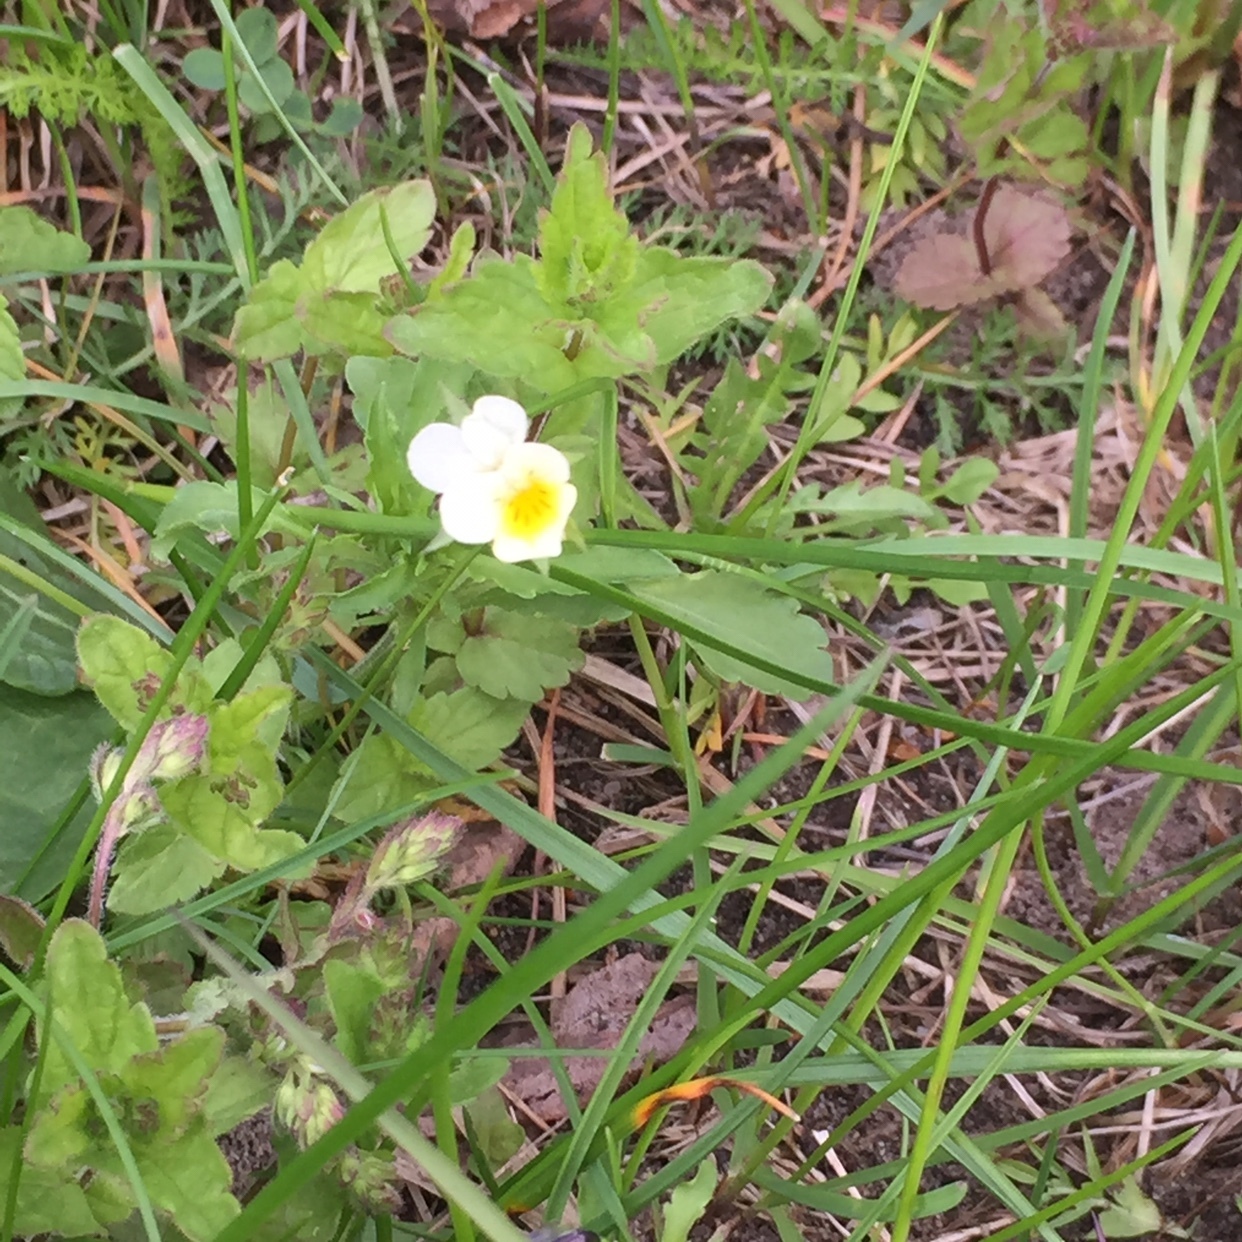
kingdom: Plantae
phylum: Tracheophyta
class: Magnoliopsida
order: Malpighiales
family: Violaceae
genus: Viola
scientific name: Viola arvensis
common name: Field pansy
